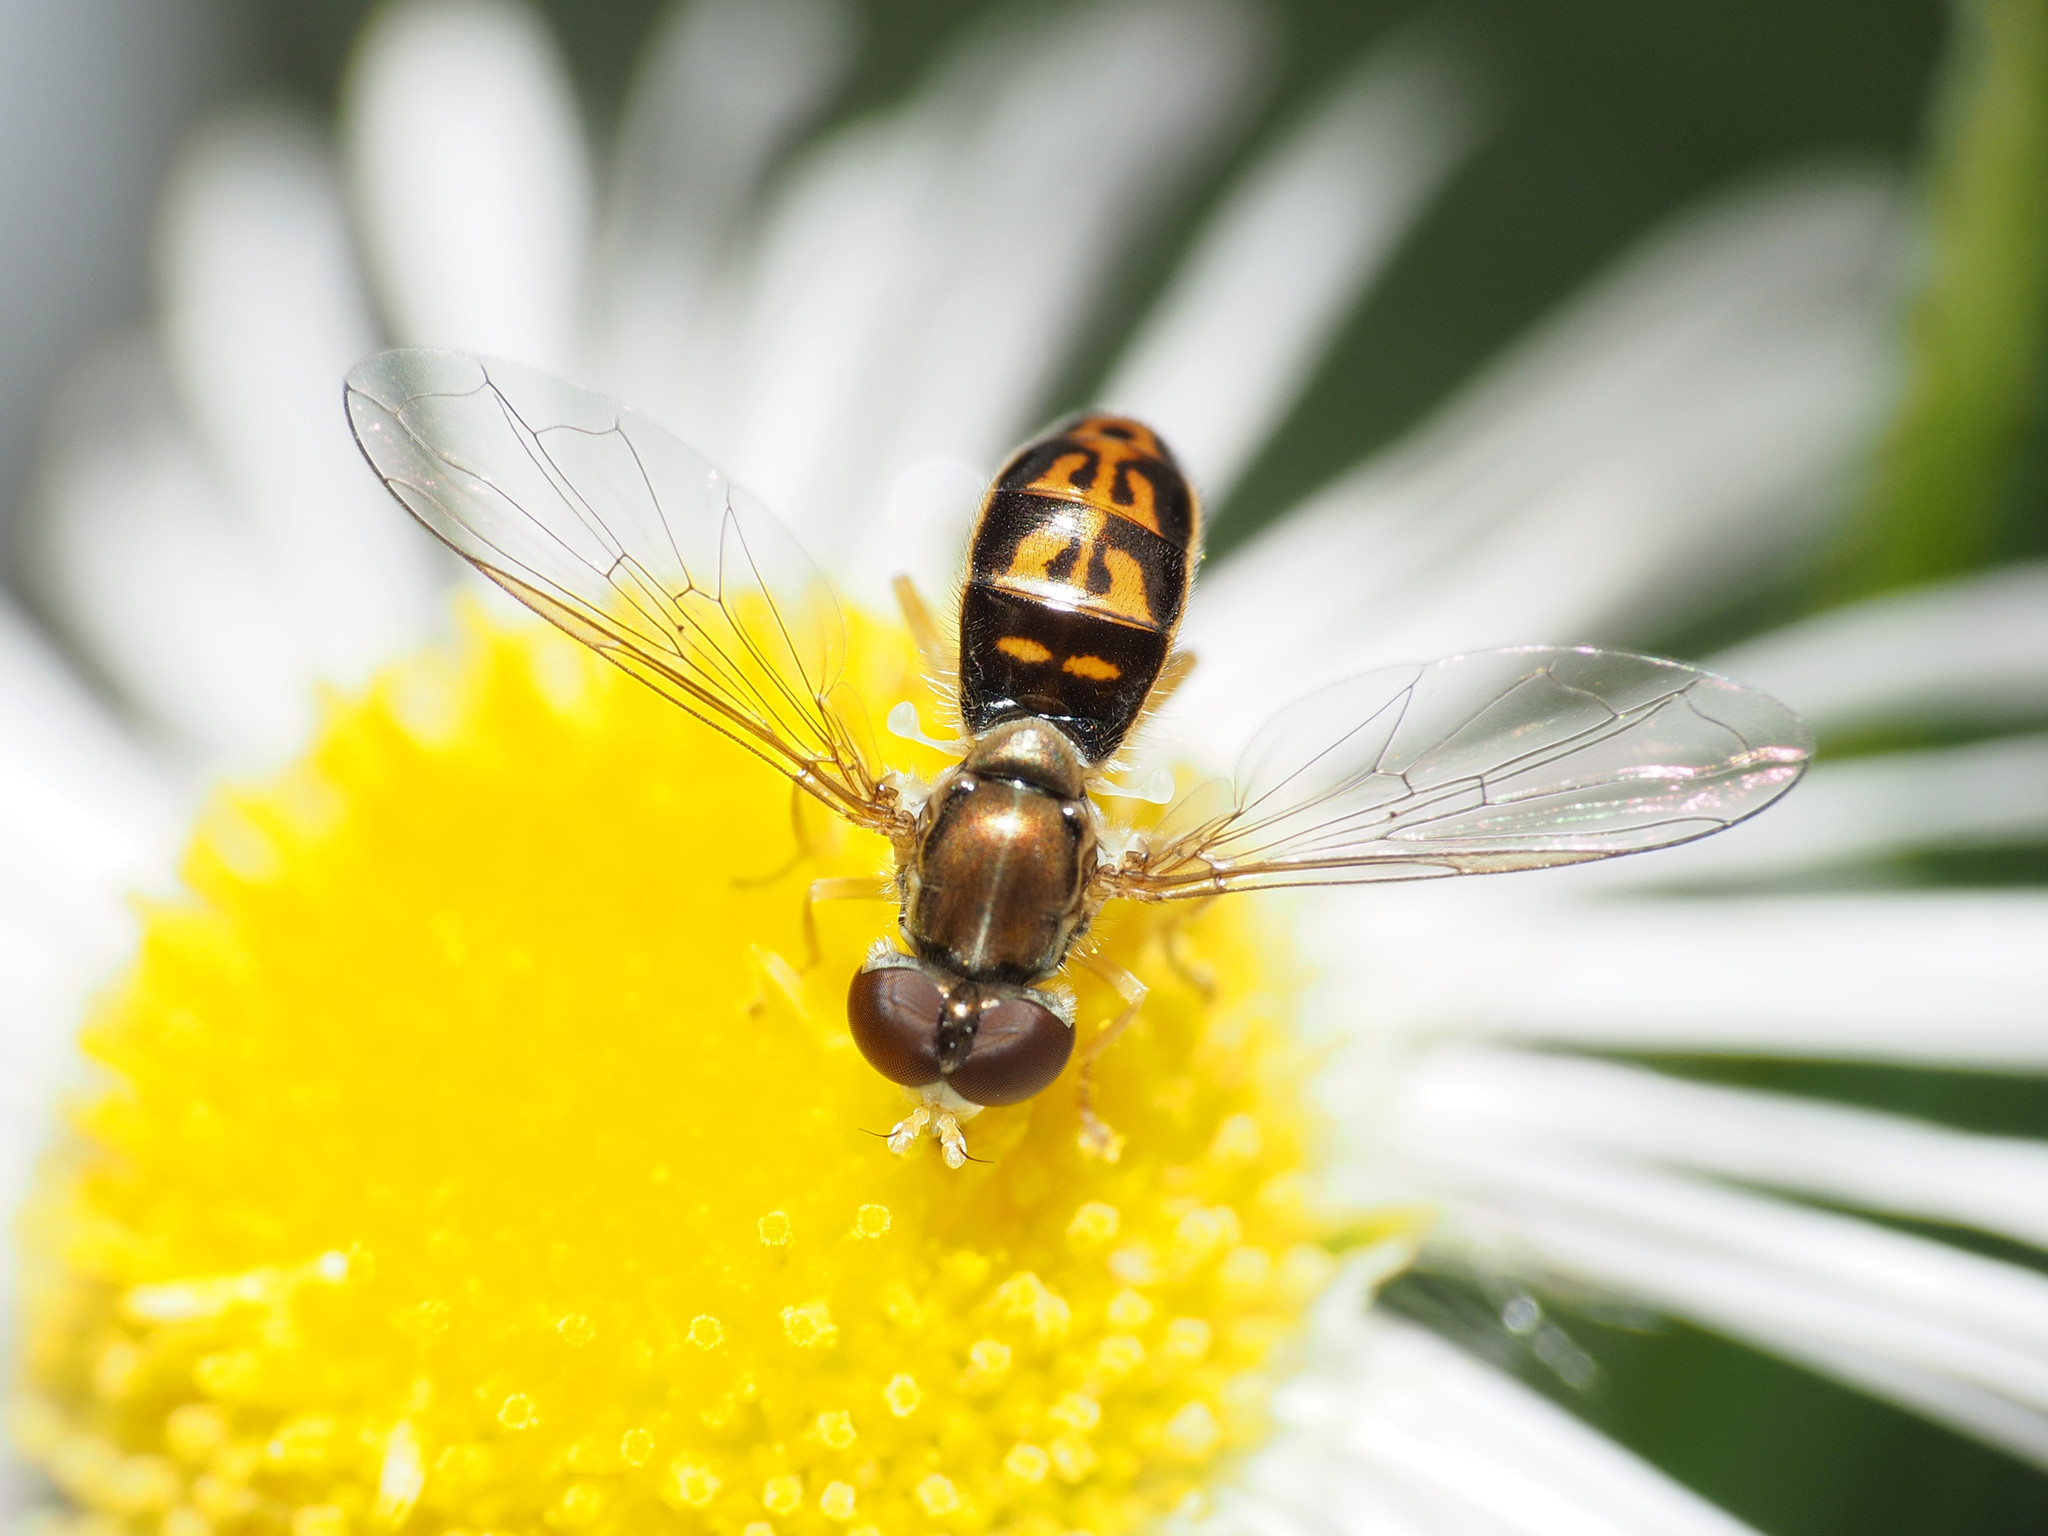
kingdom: Animalia
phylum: Arthropoda
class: Insecta
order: Diptera
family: Syrphidae
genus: Toxomerus
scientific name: Toxomerus marginatus
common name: Syrphid fly
